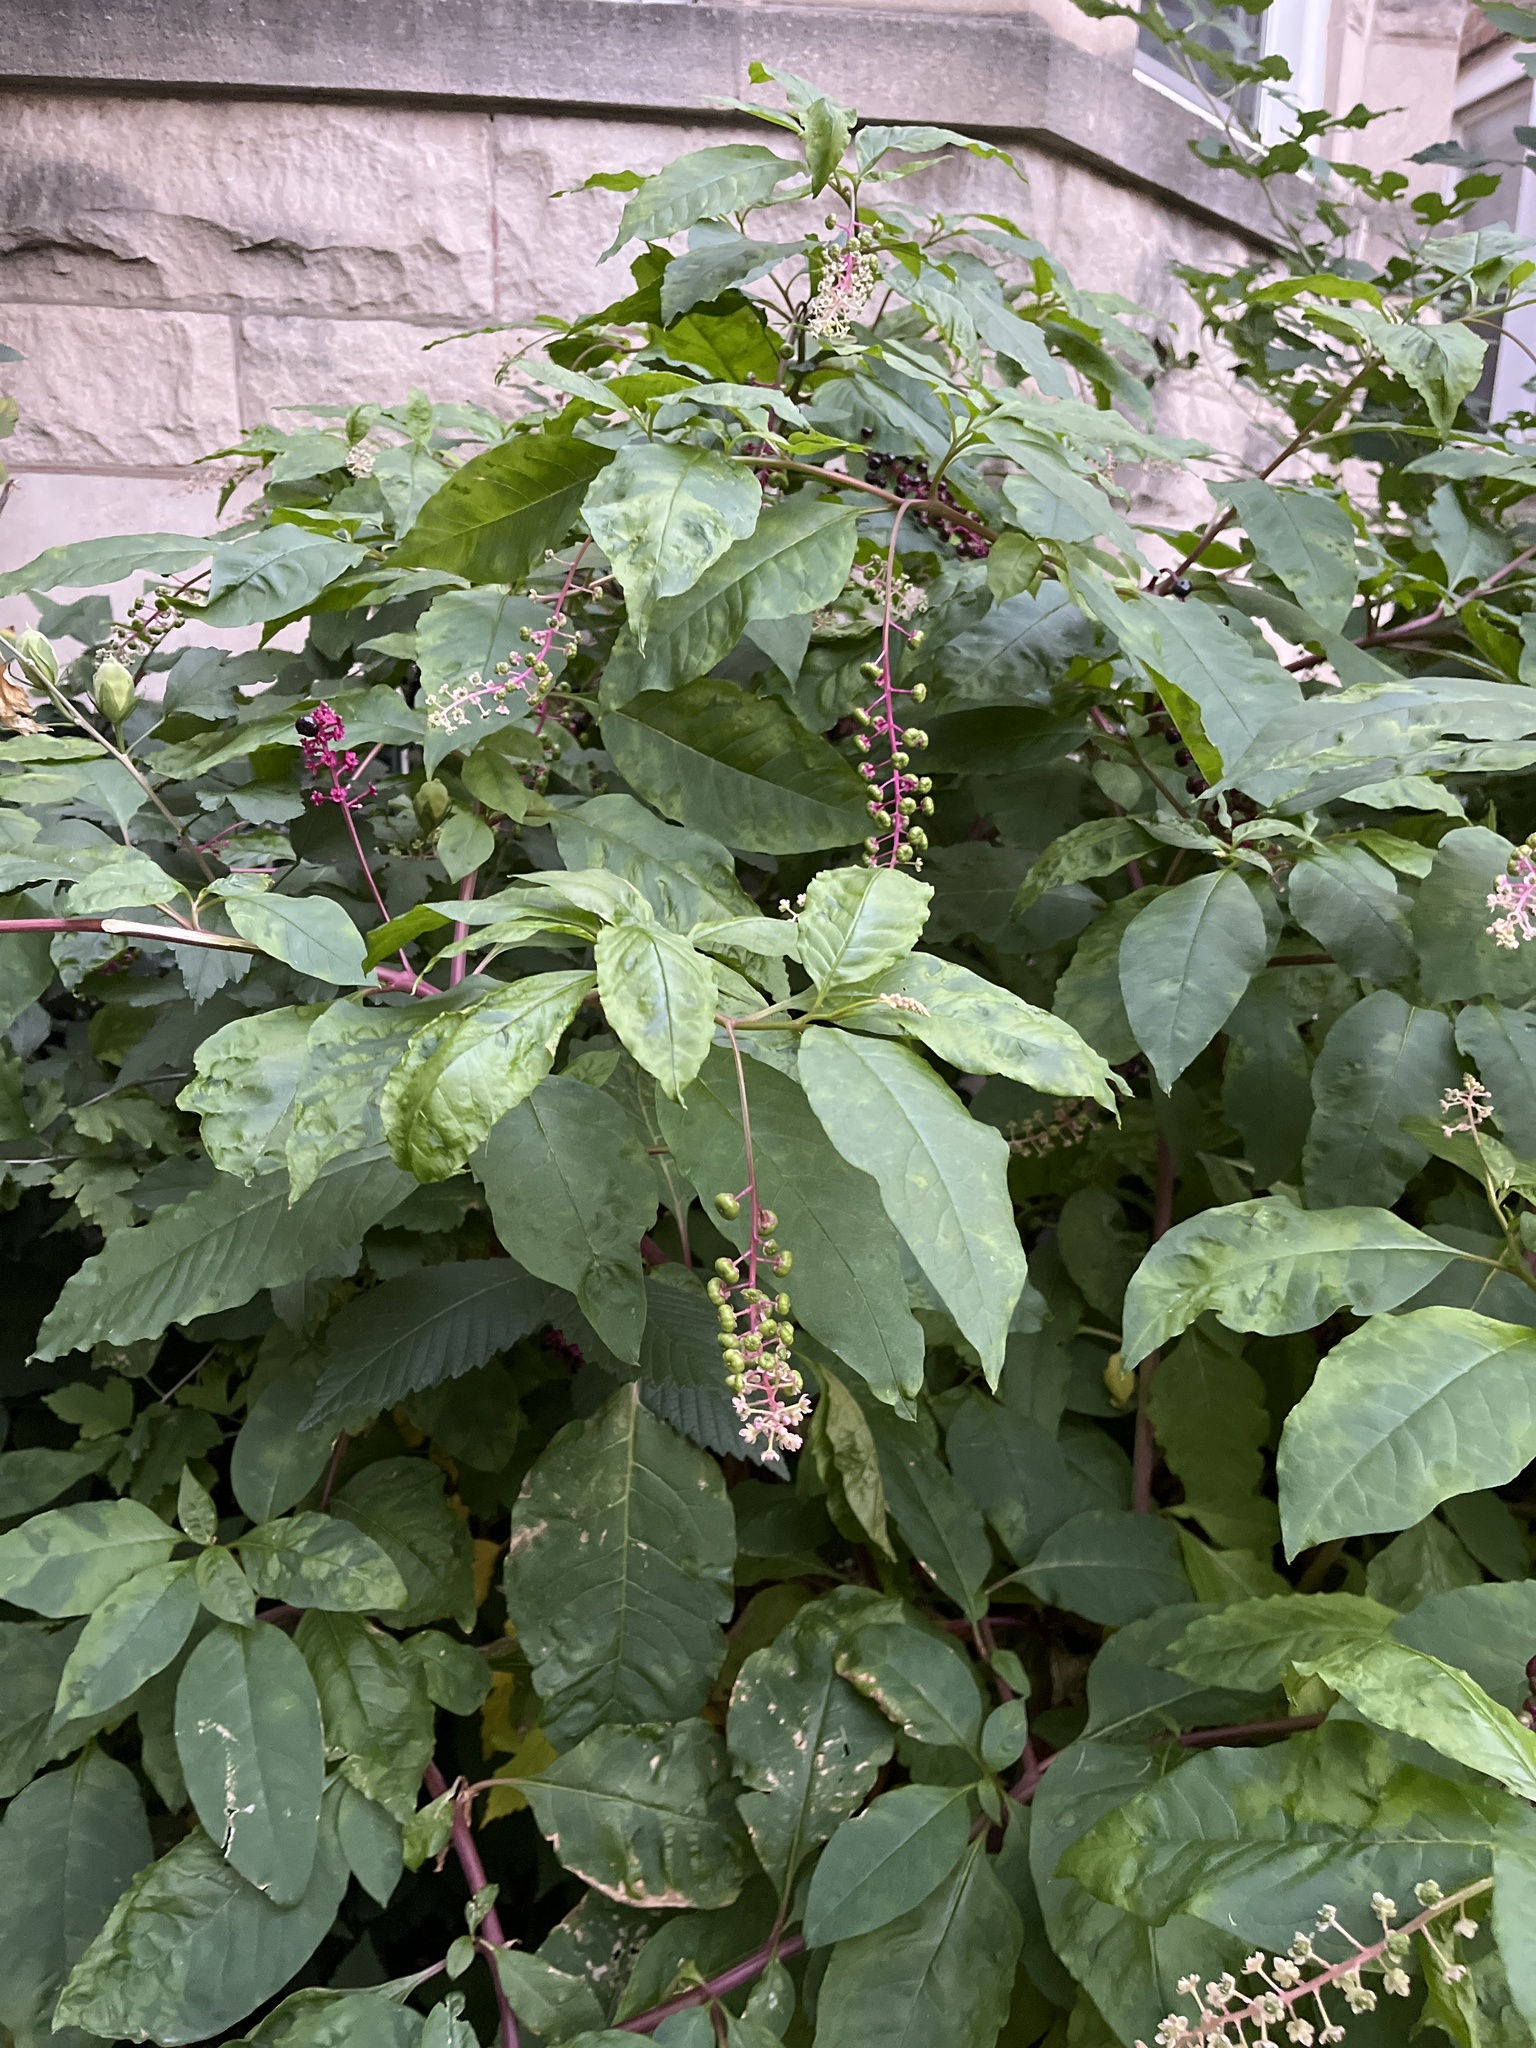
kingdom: Plantae
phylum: Tracheophyta
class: Magnoliopsida
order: Caryophyllales
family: Phytolaccaceae
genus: Phytolacca
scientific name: Phytolacca americana
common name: American pokeweed
